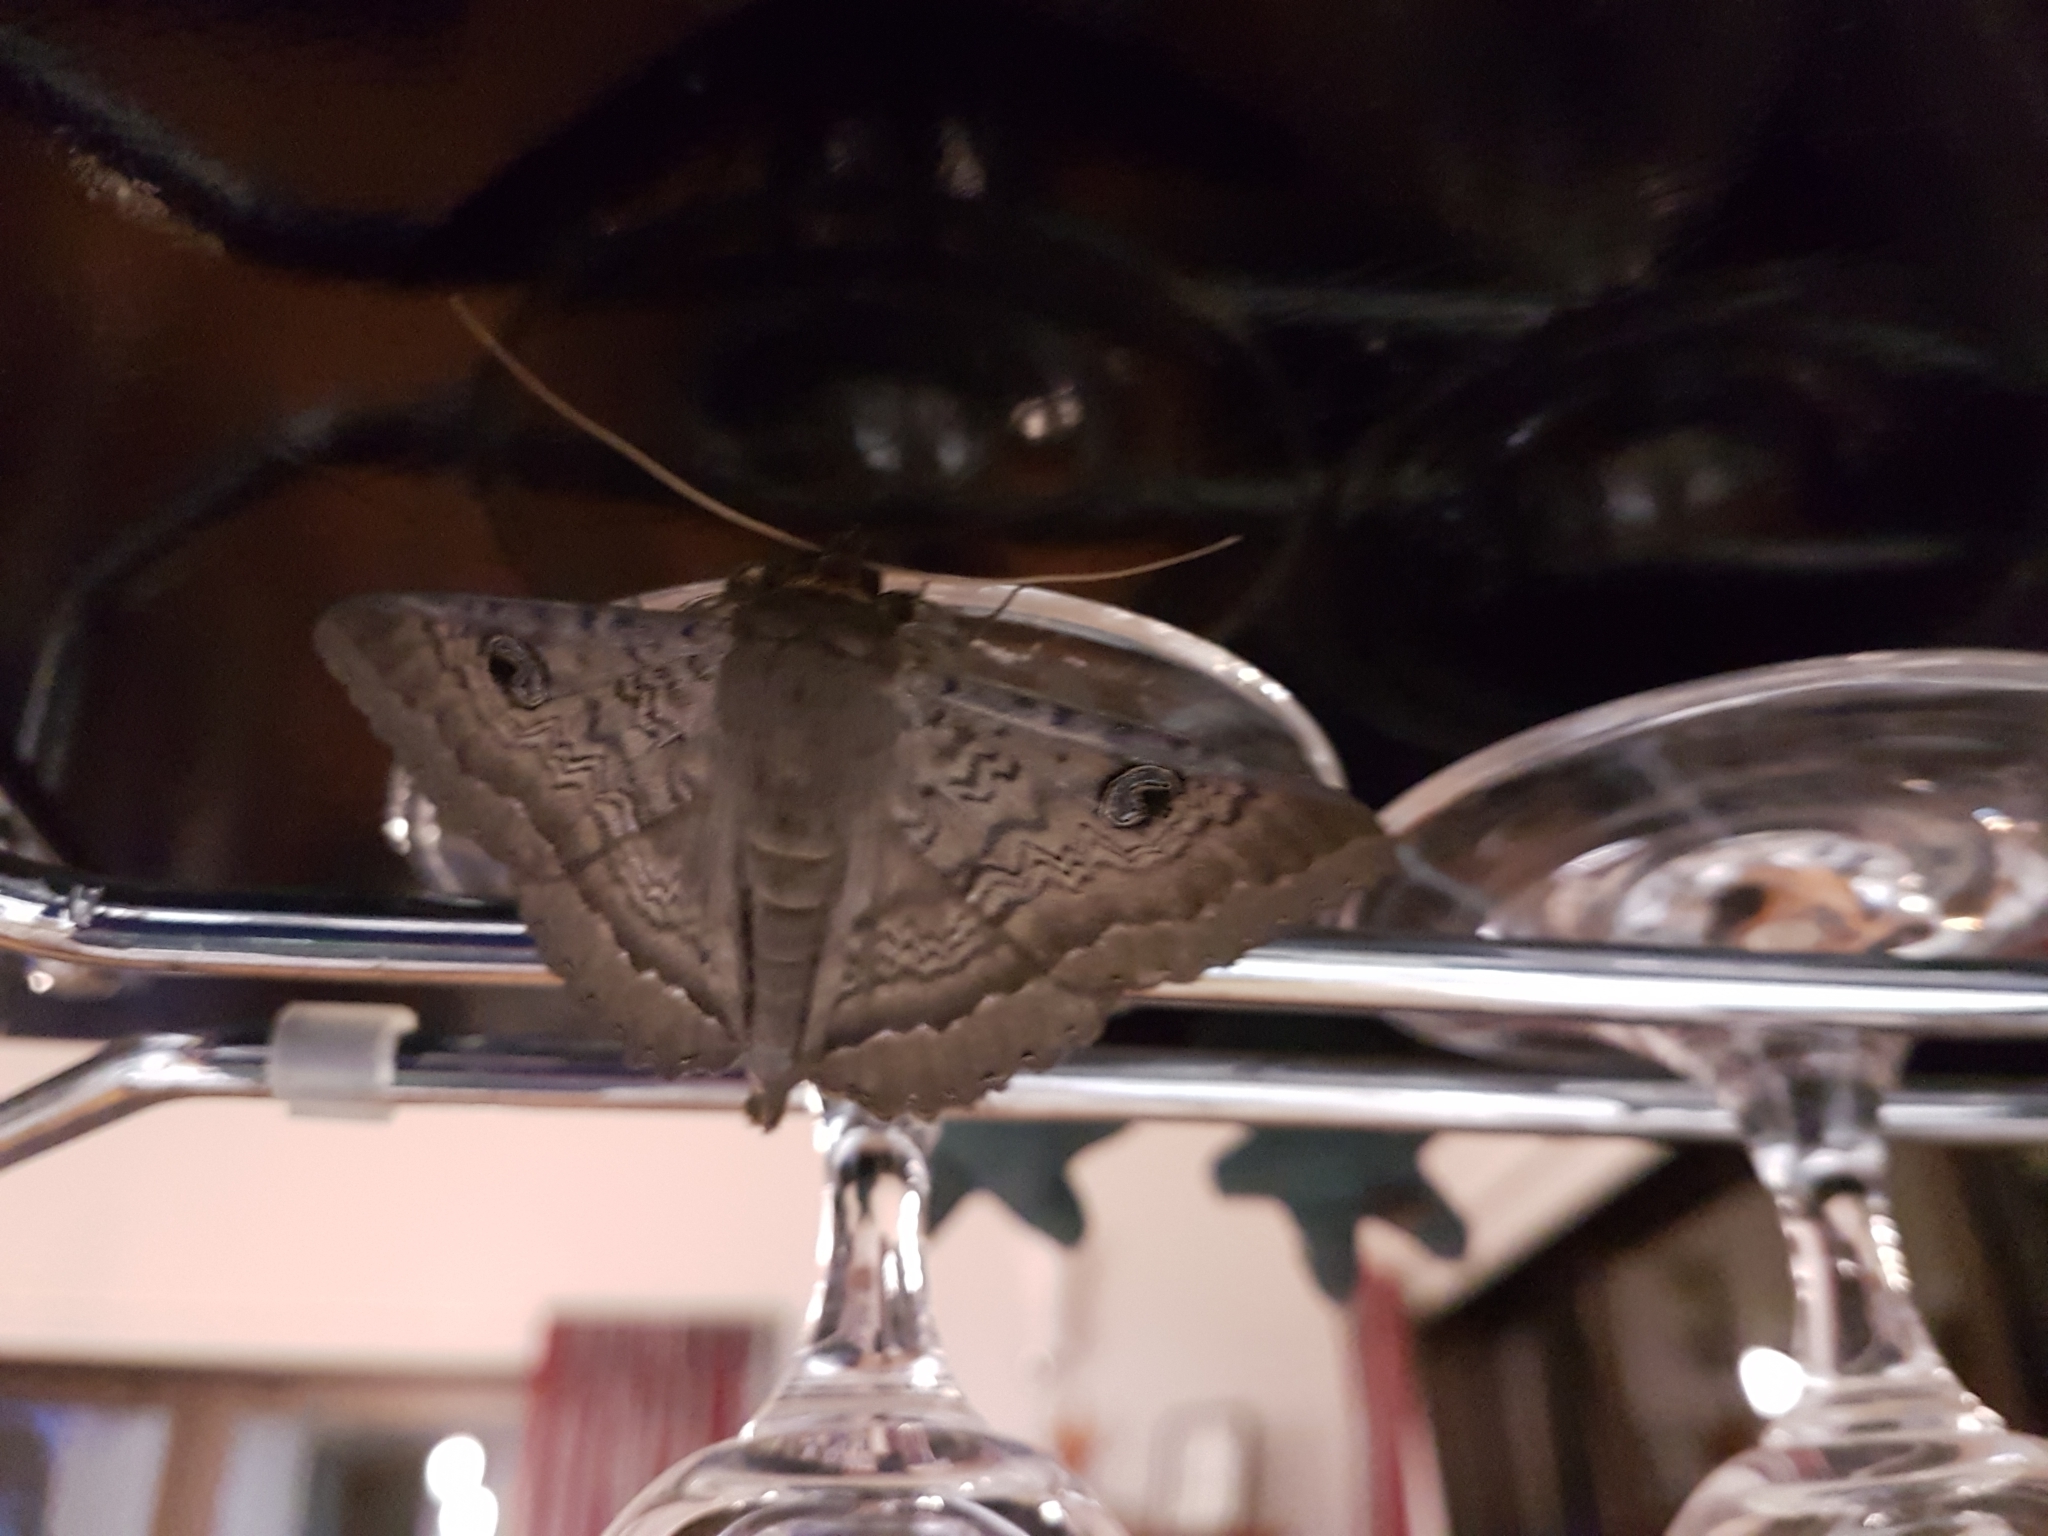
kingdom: Animalia
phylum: Arthropoda
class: Insecta
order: Lepidoptera
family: Erebidae
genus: Dasypodia
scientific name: Dasypodia cymatodes
